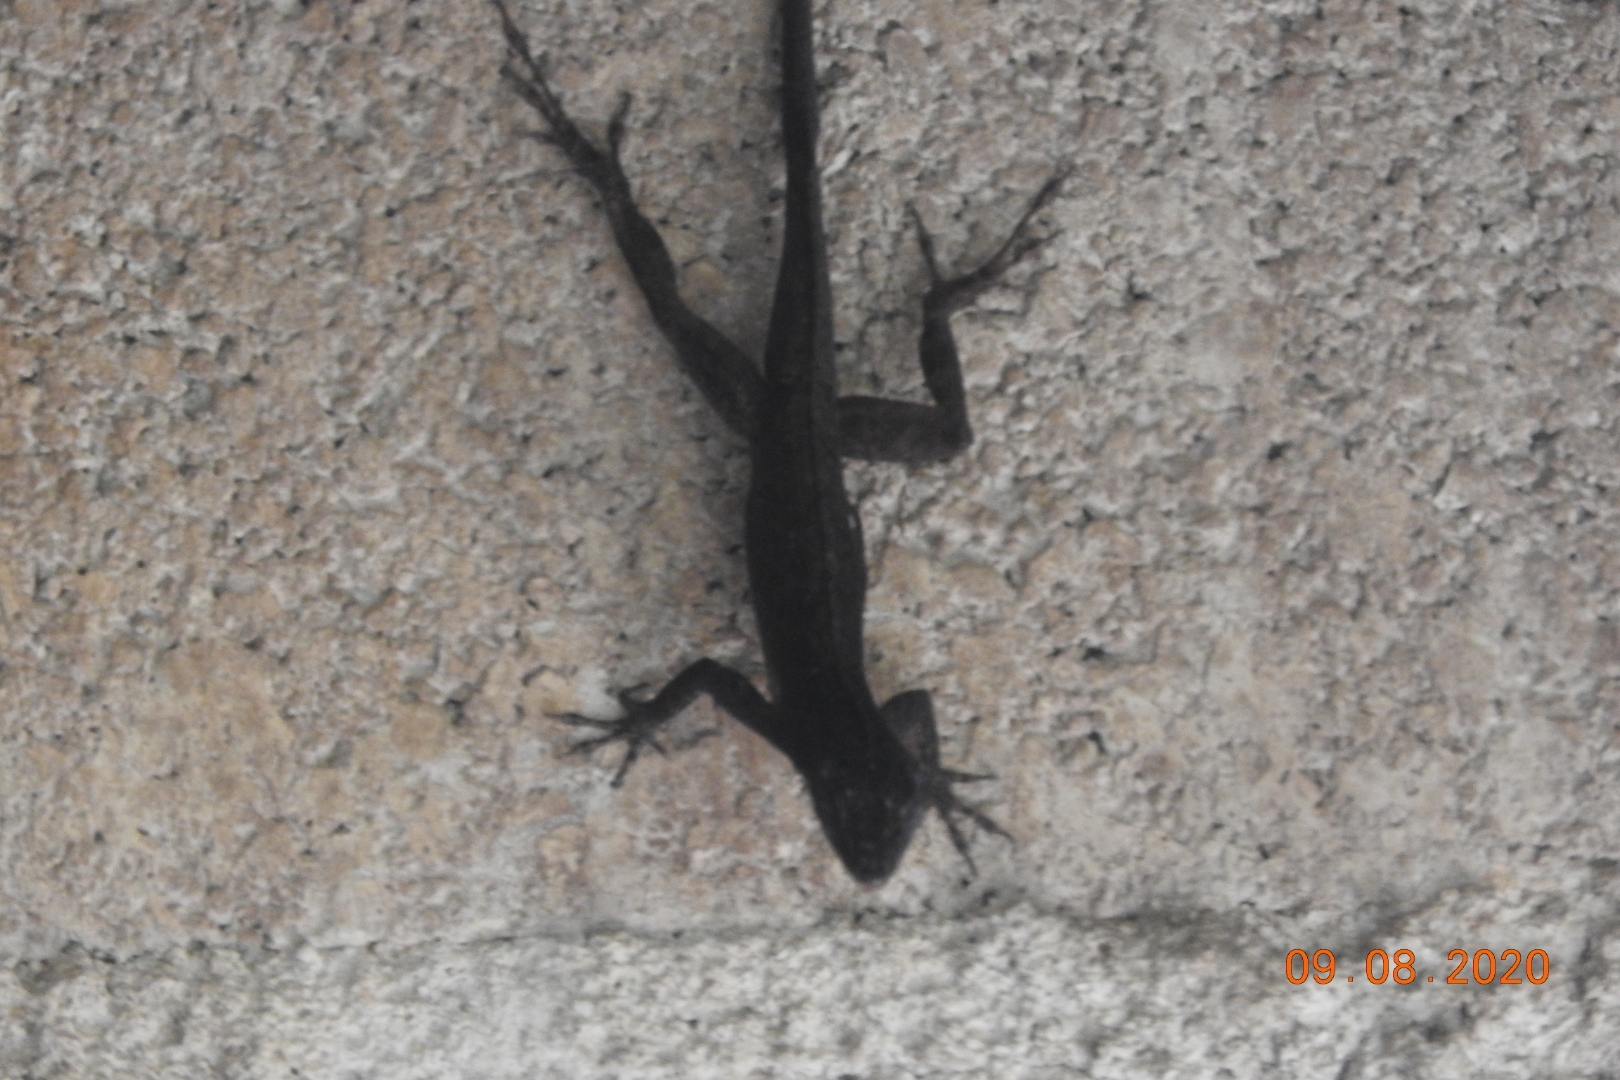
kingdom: Animalia
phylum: Chordata
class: Squamata
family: Dactyloidae
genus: Anolis
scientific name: Anolis sagrei
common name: Brown anole
